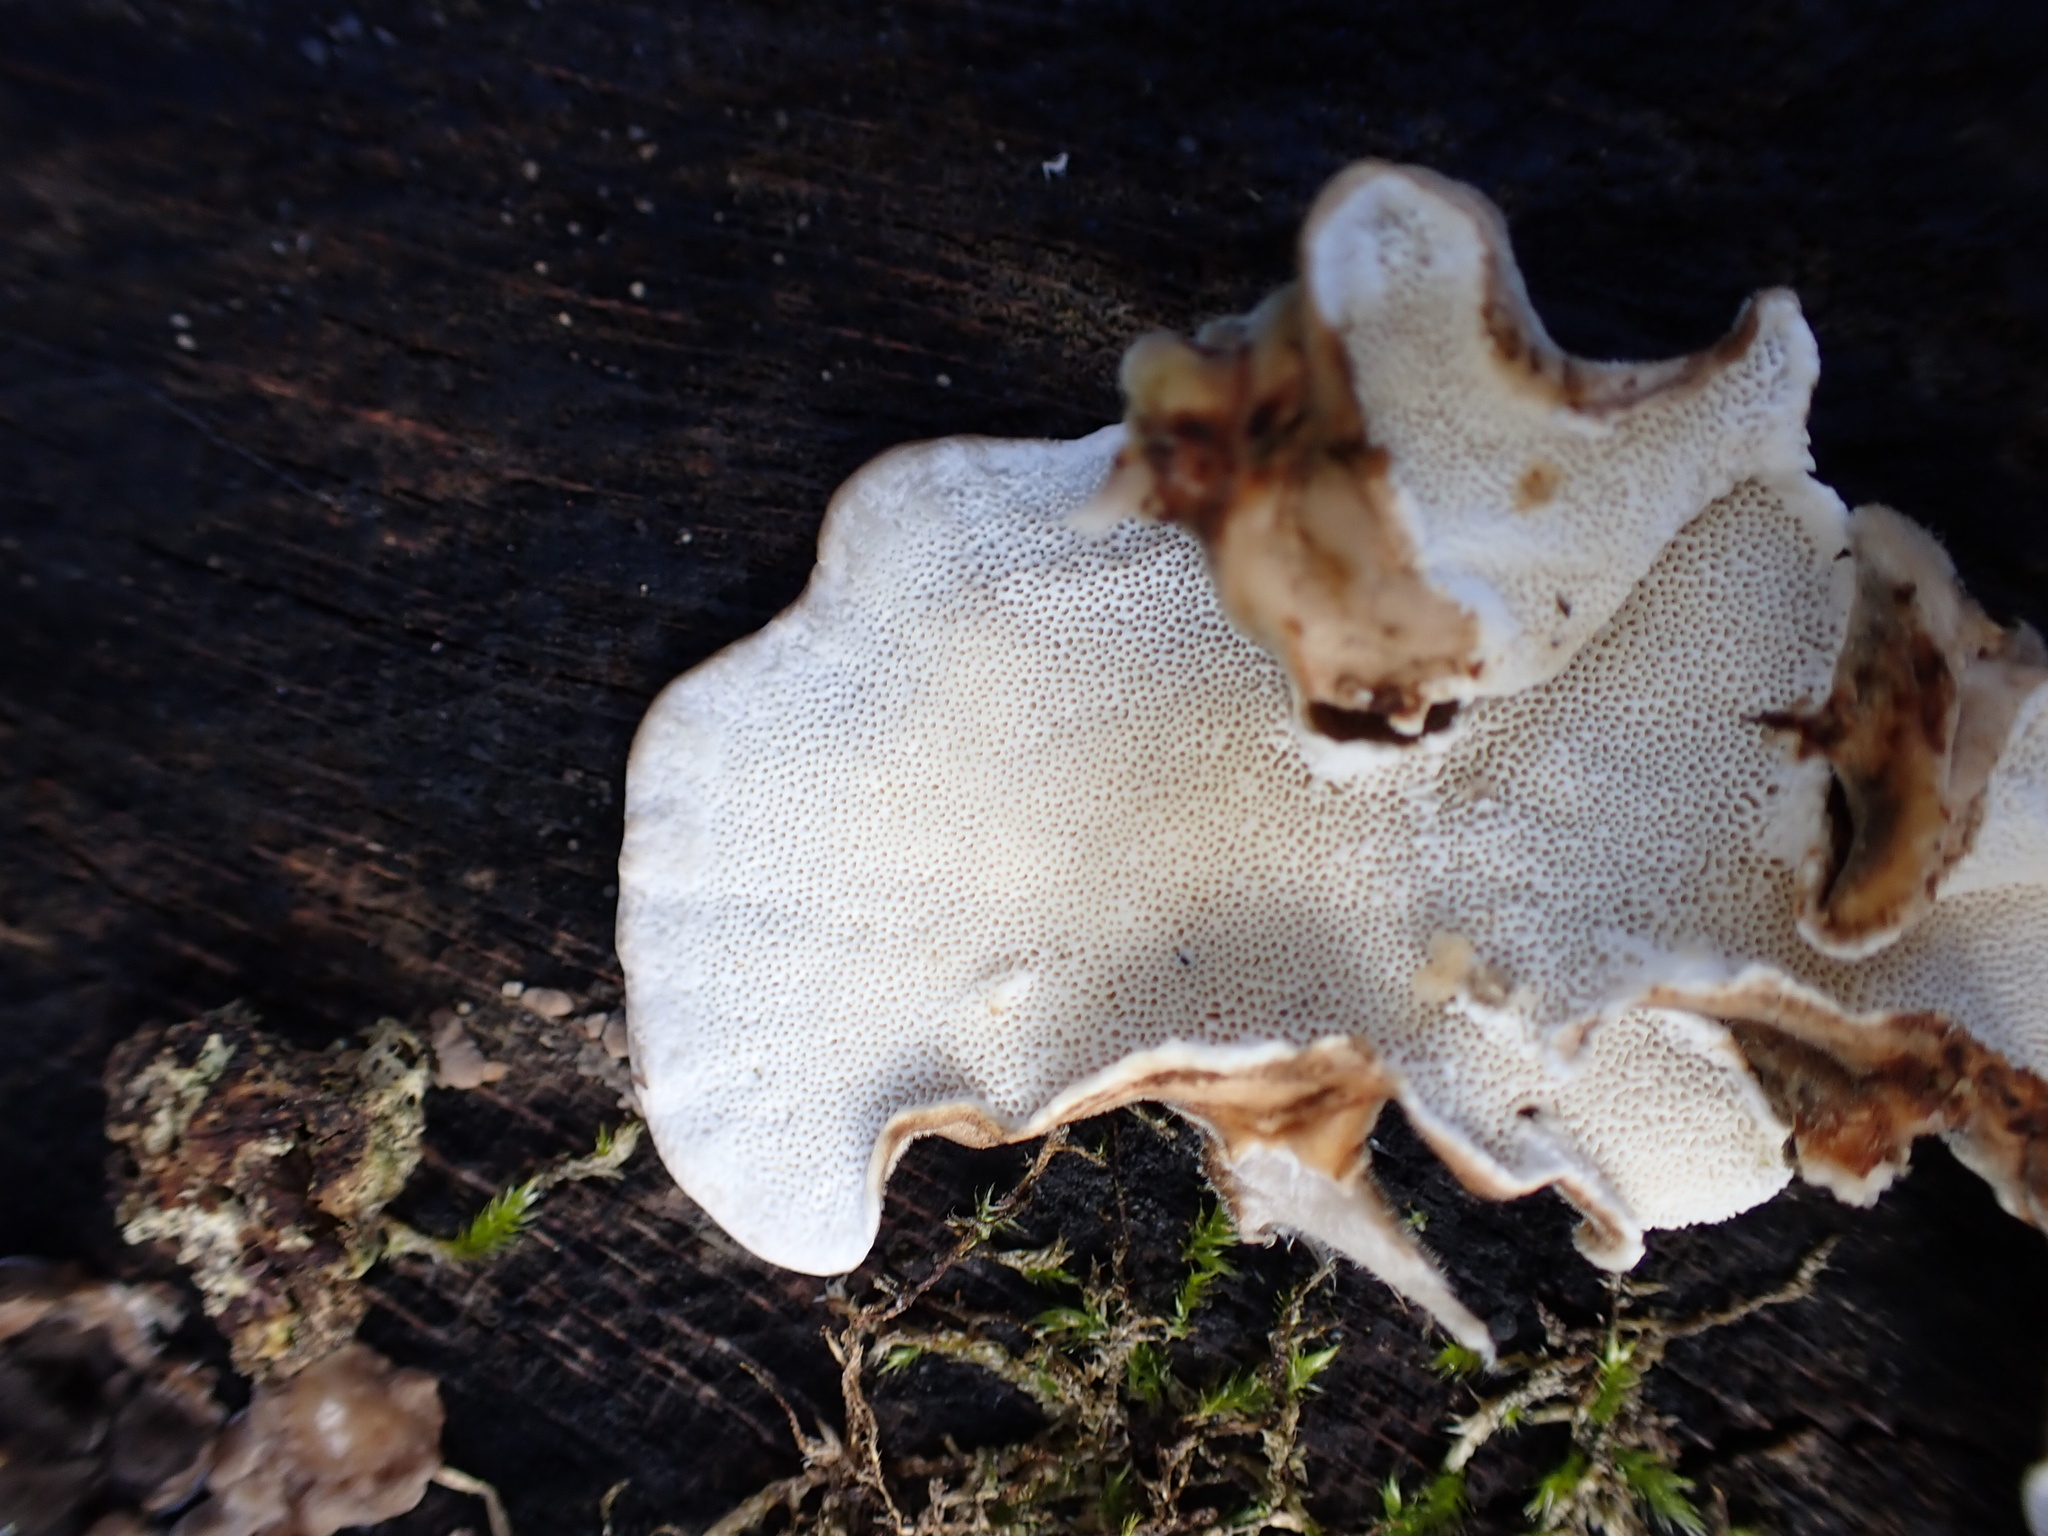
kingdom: Fungi
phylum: Basidiomycota
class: Agaricomycetes
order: Polyporales
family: Polyporaceae
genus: Trametes
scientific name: Trametes versicolor
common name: Turkeytail
